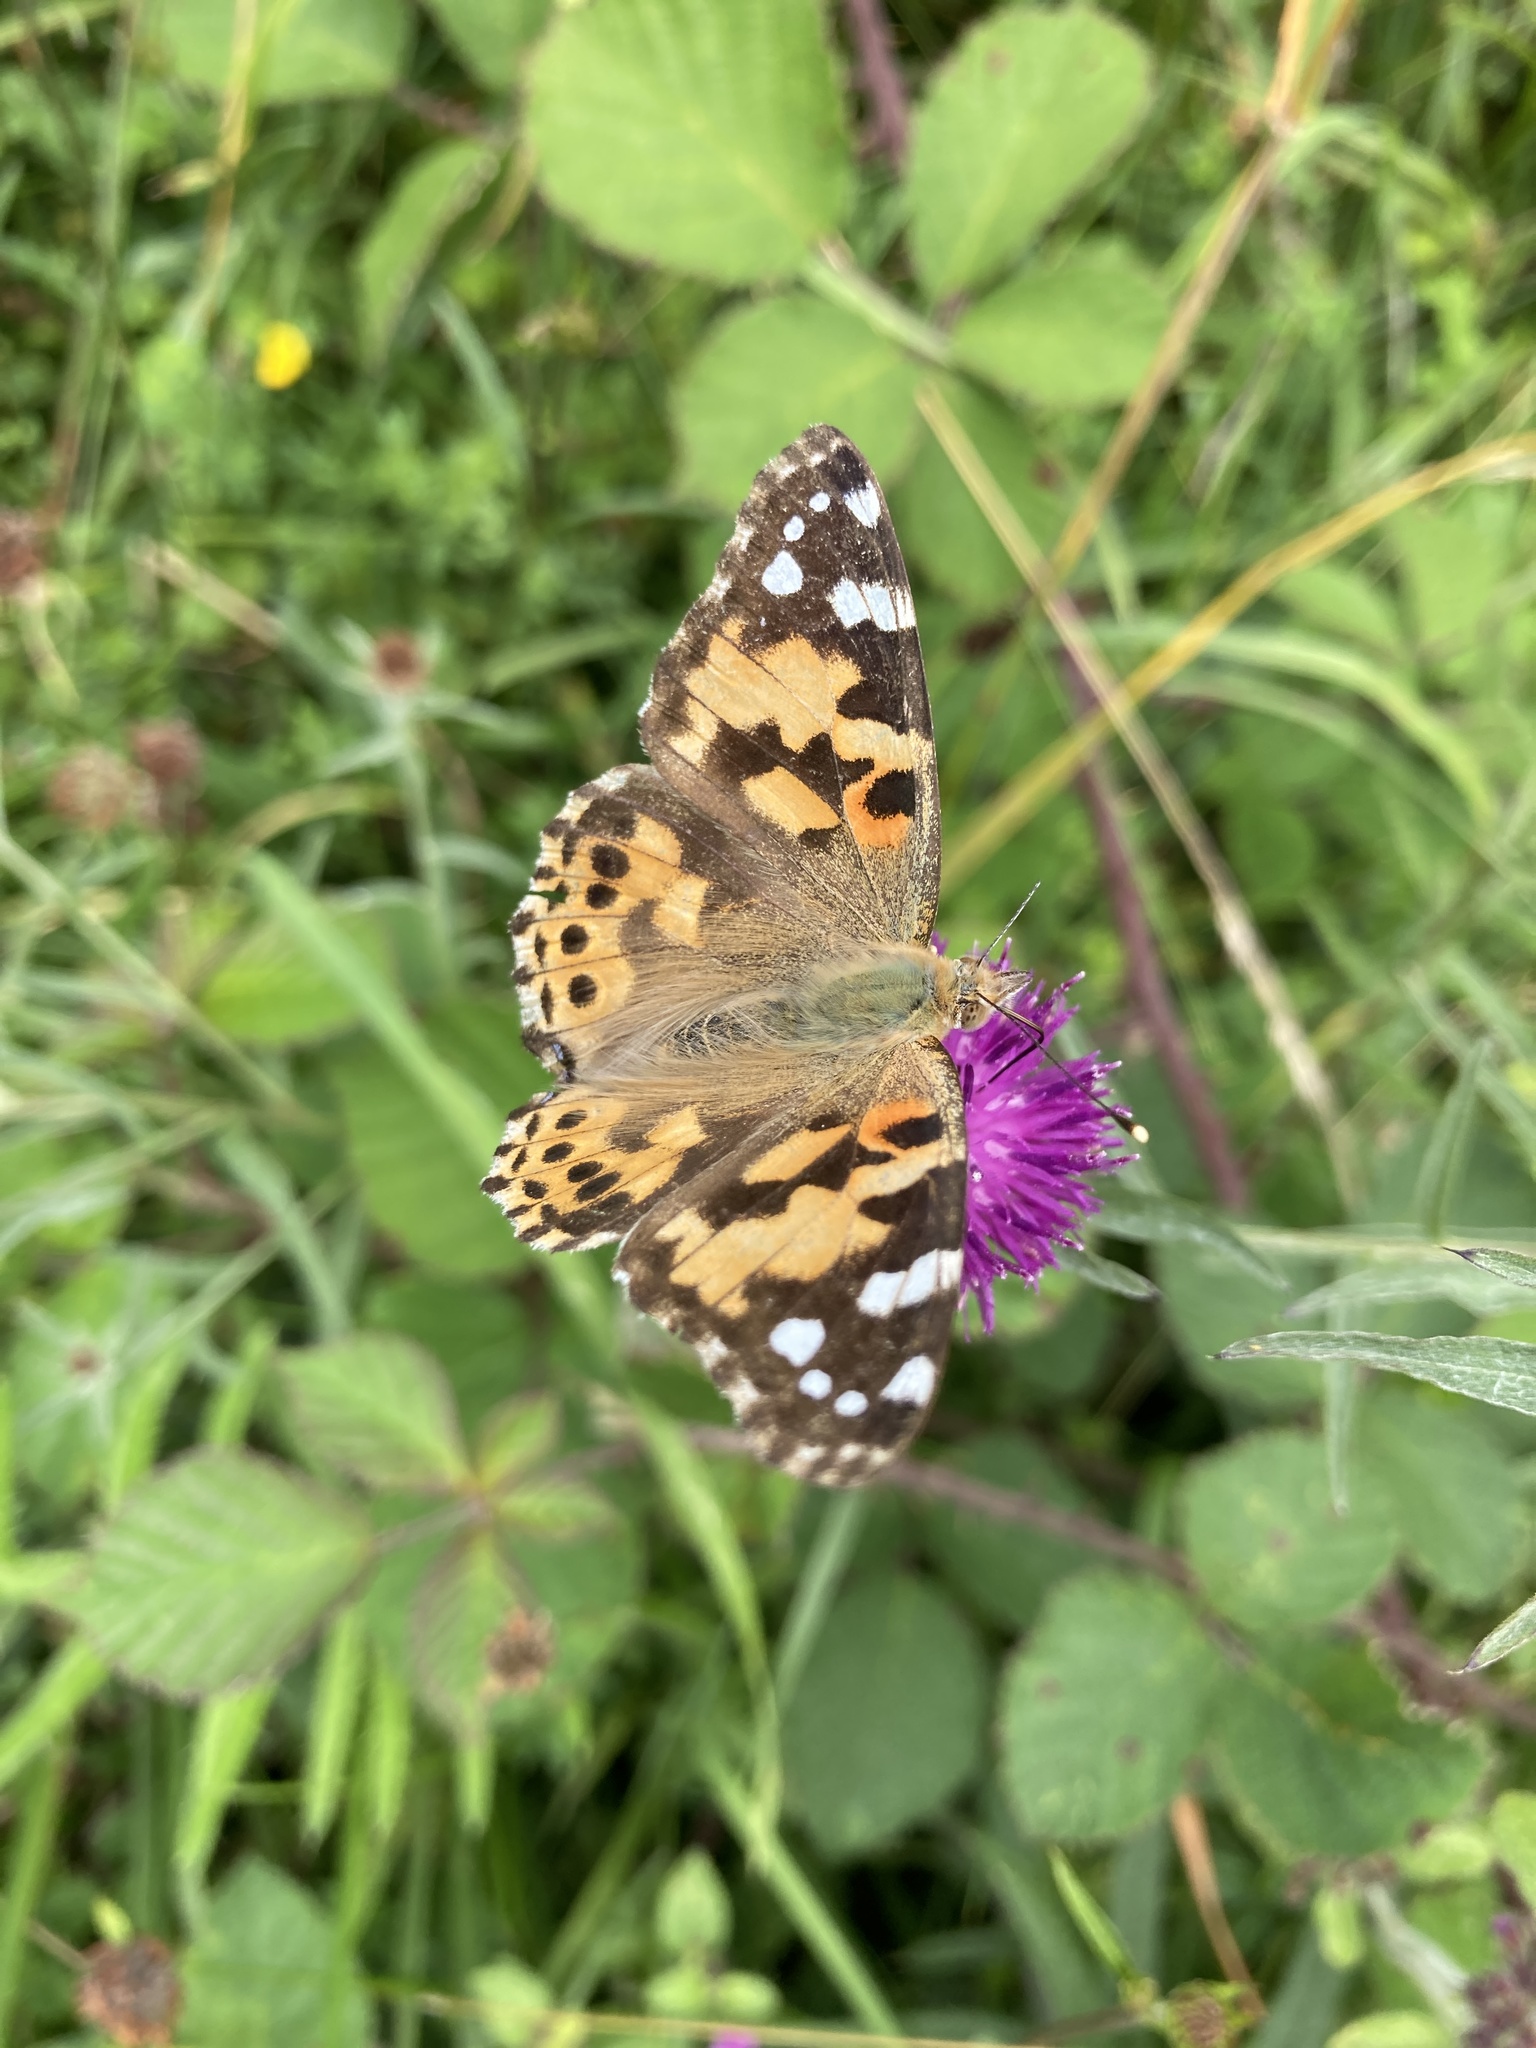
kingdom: Animalia
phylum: Arthropoda
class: Insecta
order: Lepidoptera
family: Nymphalidae
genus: Vanessa
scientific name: Vanessa cardui
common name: Painted lady
